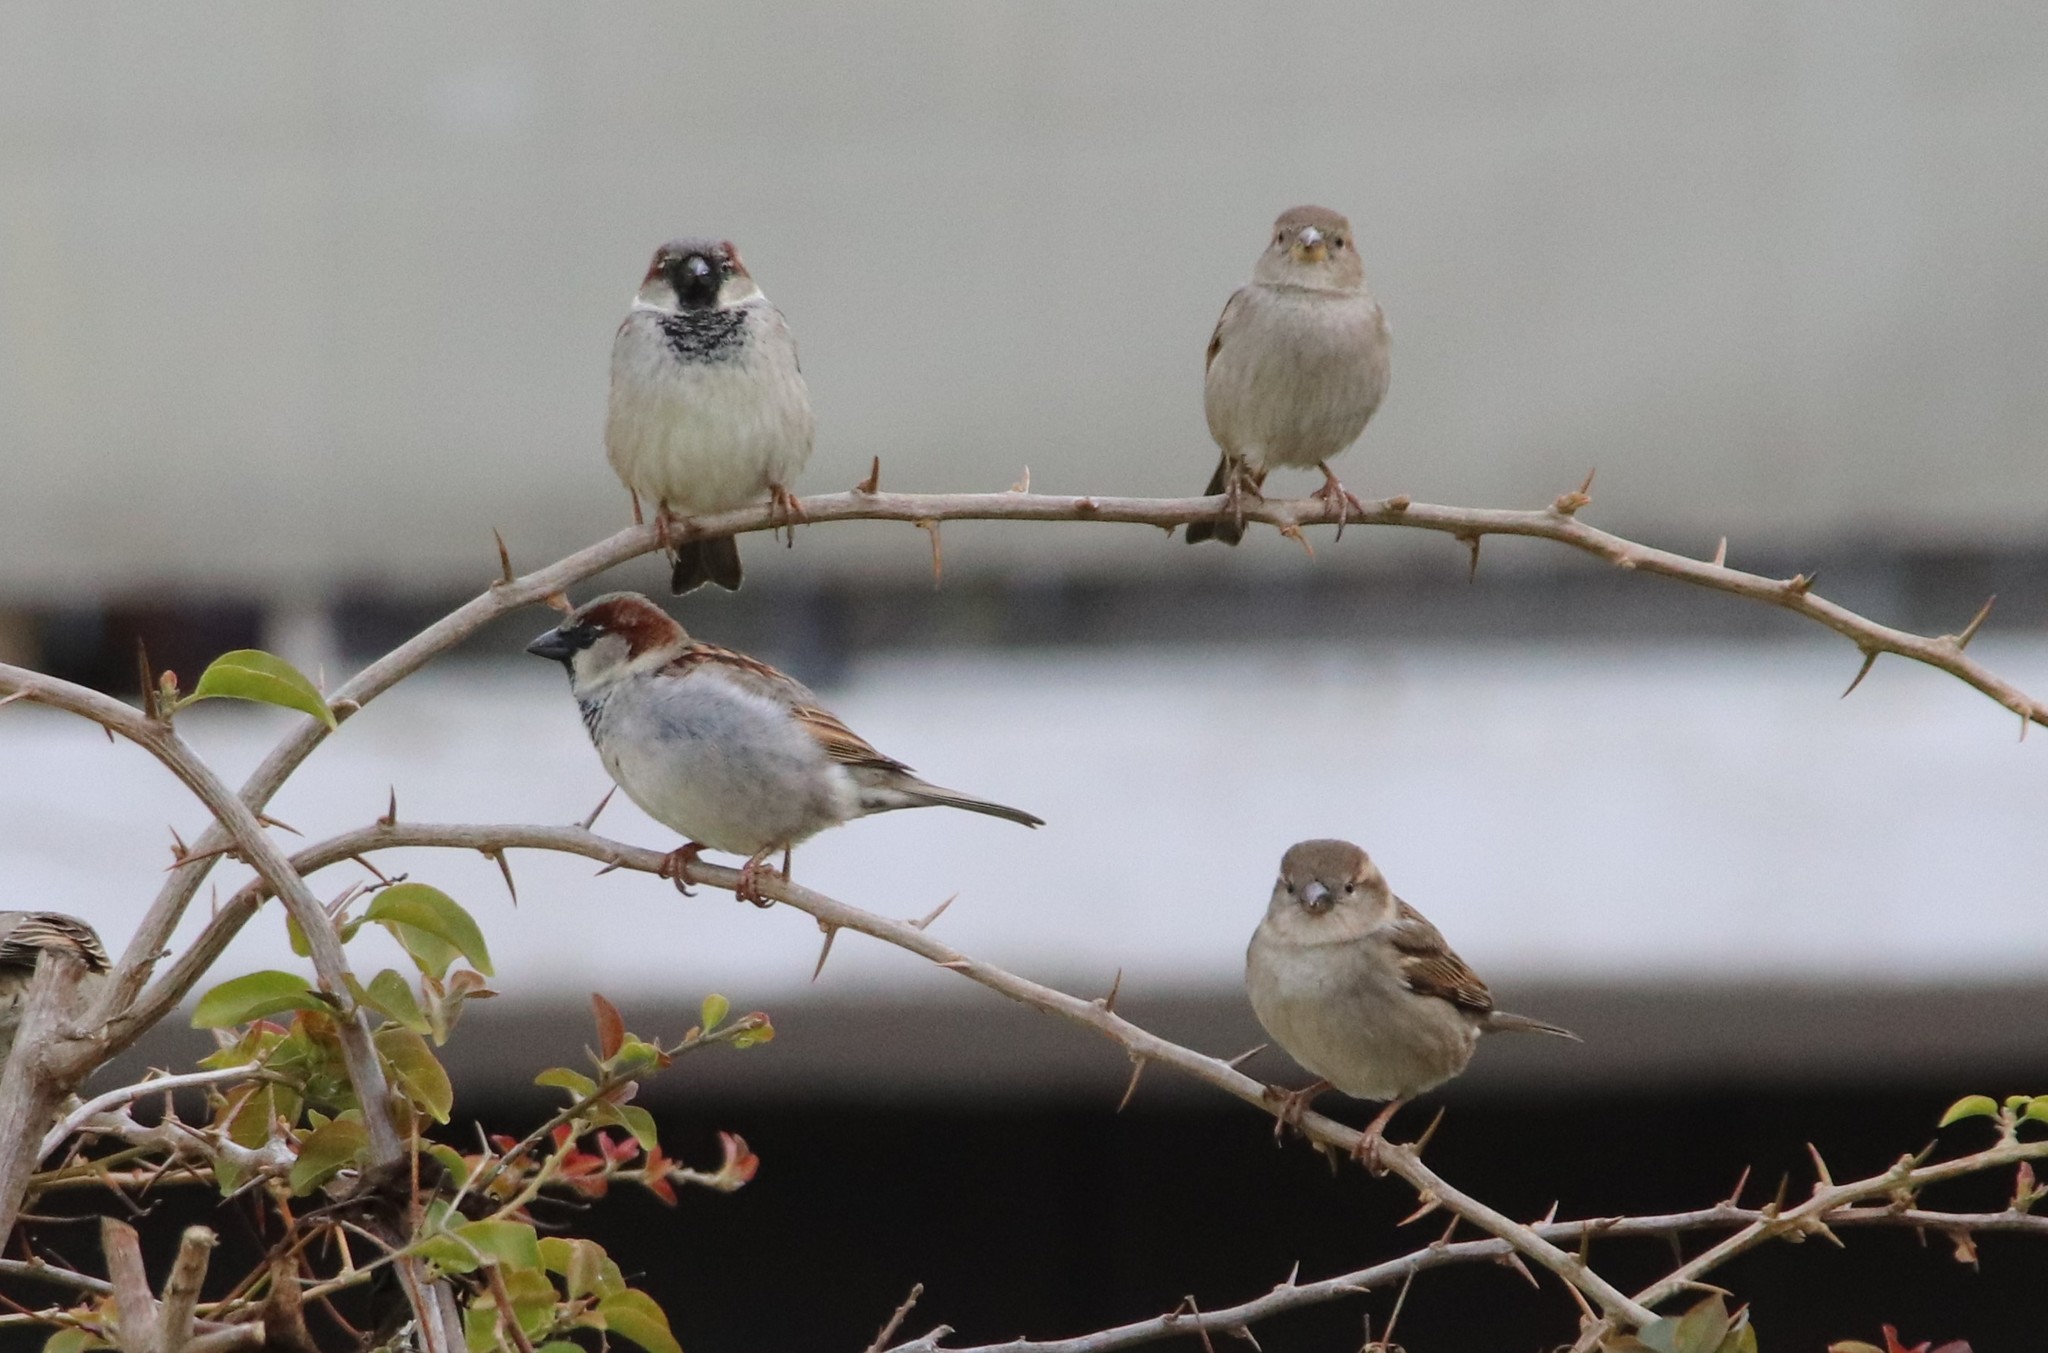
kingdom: Animalia
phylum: Chordata
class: Aves
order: Passeriformes
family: Passeridae
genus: Passer
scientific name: Passer domesticus
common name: House sparrow
